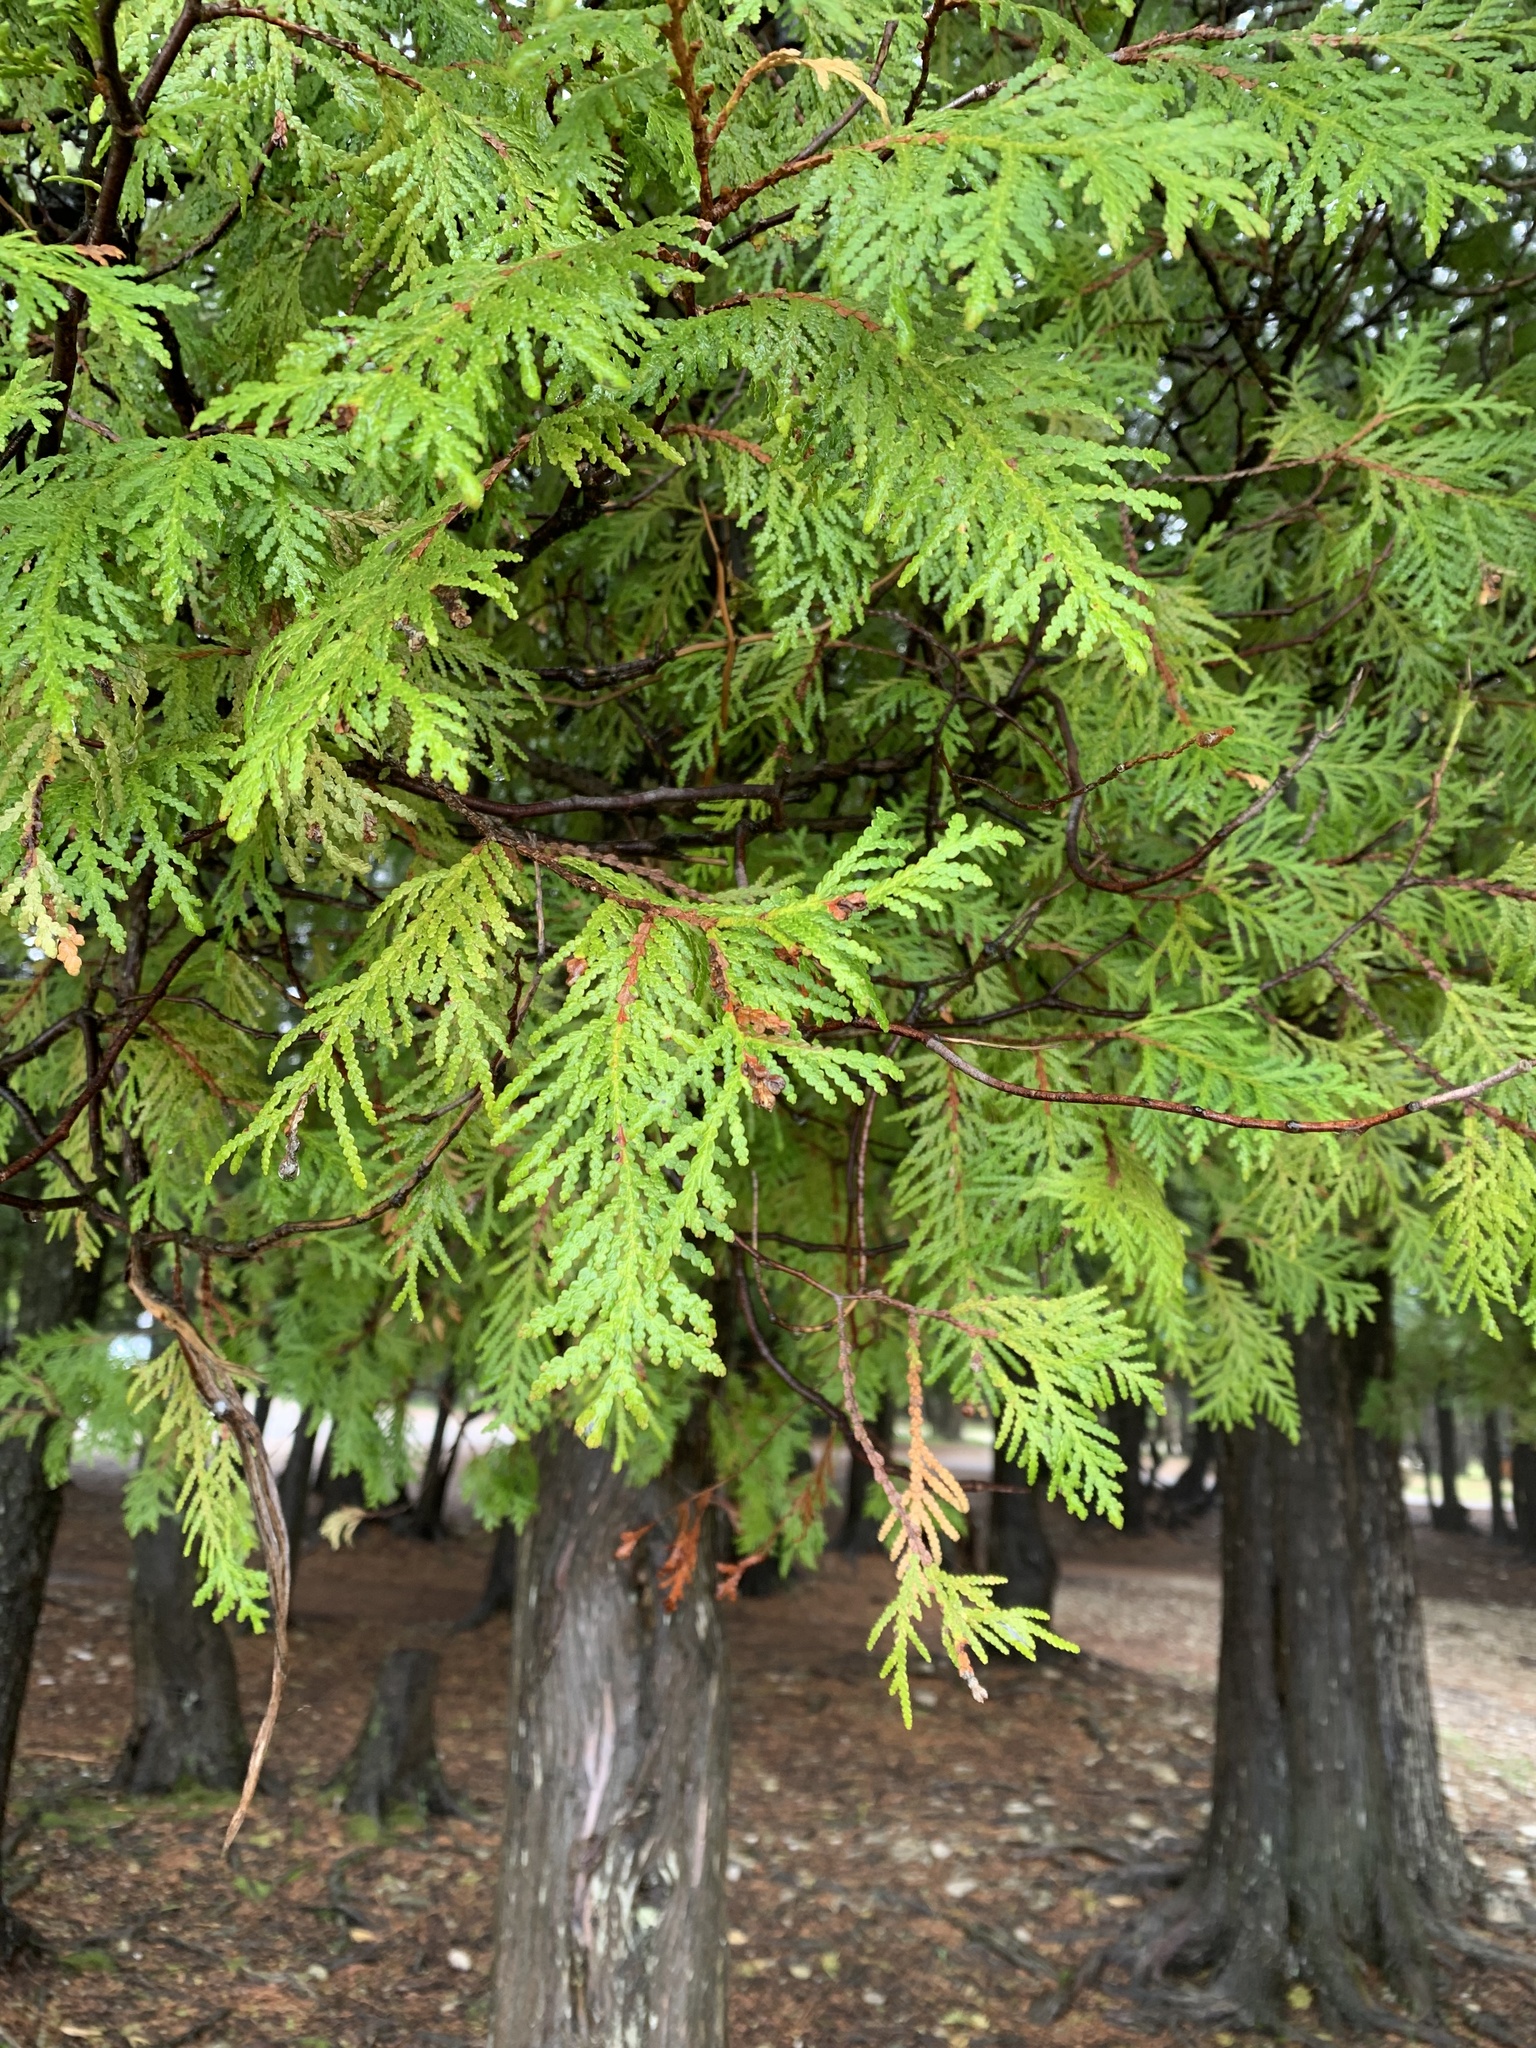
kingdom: Plantae
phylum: Tracheophyta
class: Pinopsida
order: Pinales
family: Cupressaceae
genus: Thuja
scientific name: Thuja occidentalis
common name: Northern white-cedar
